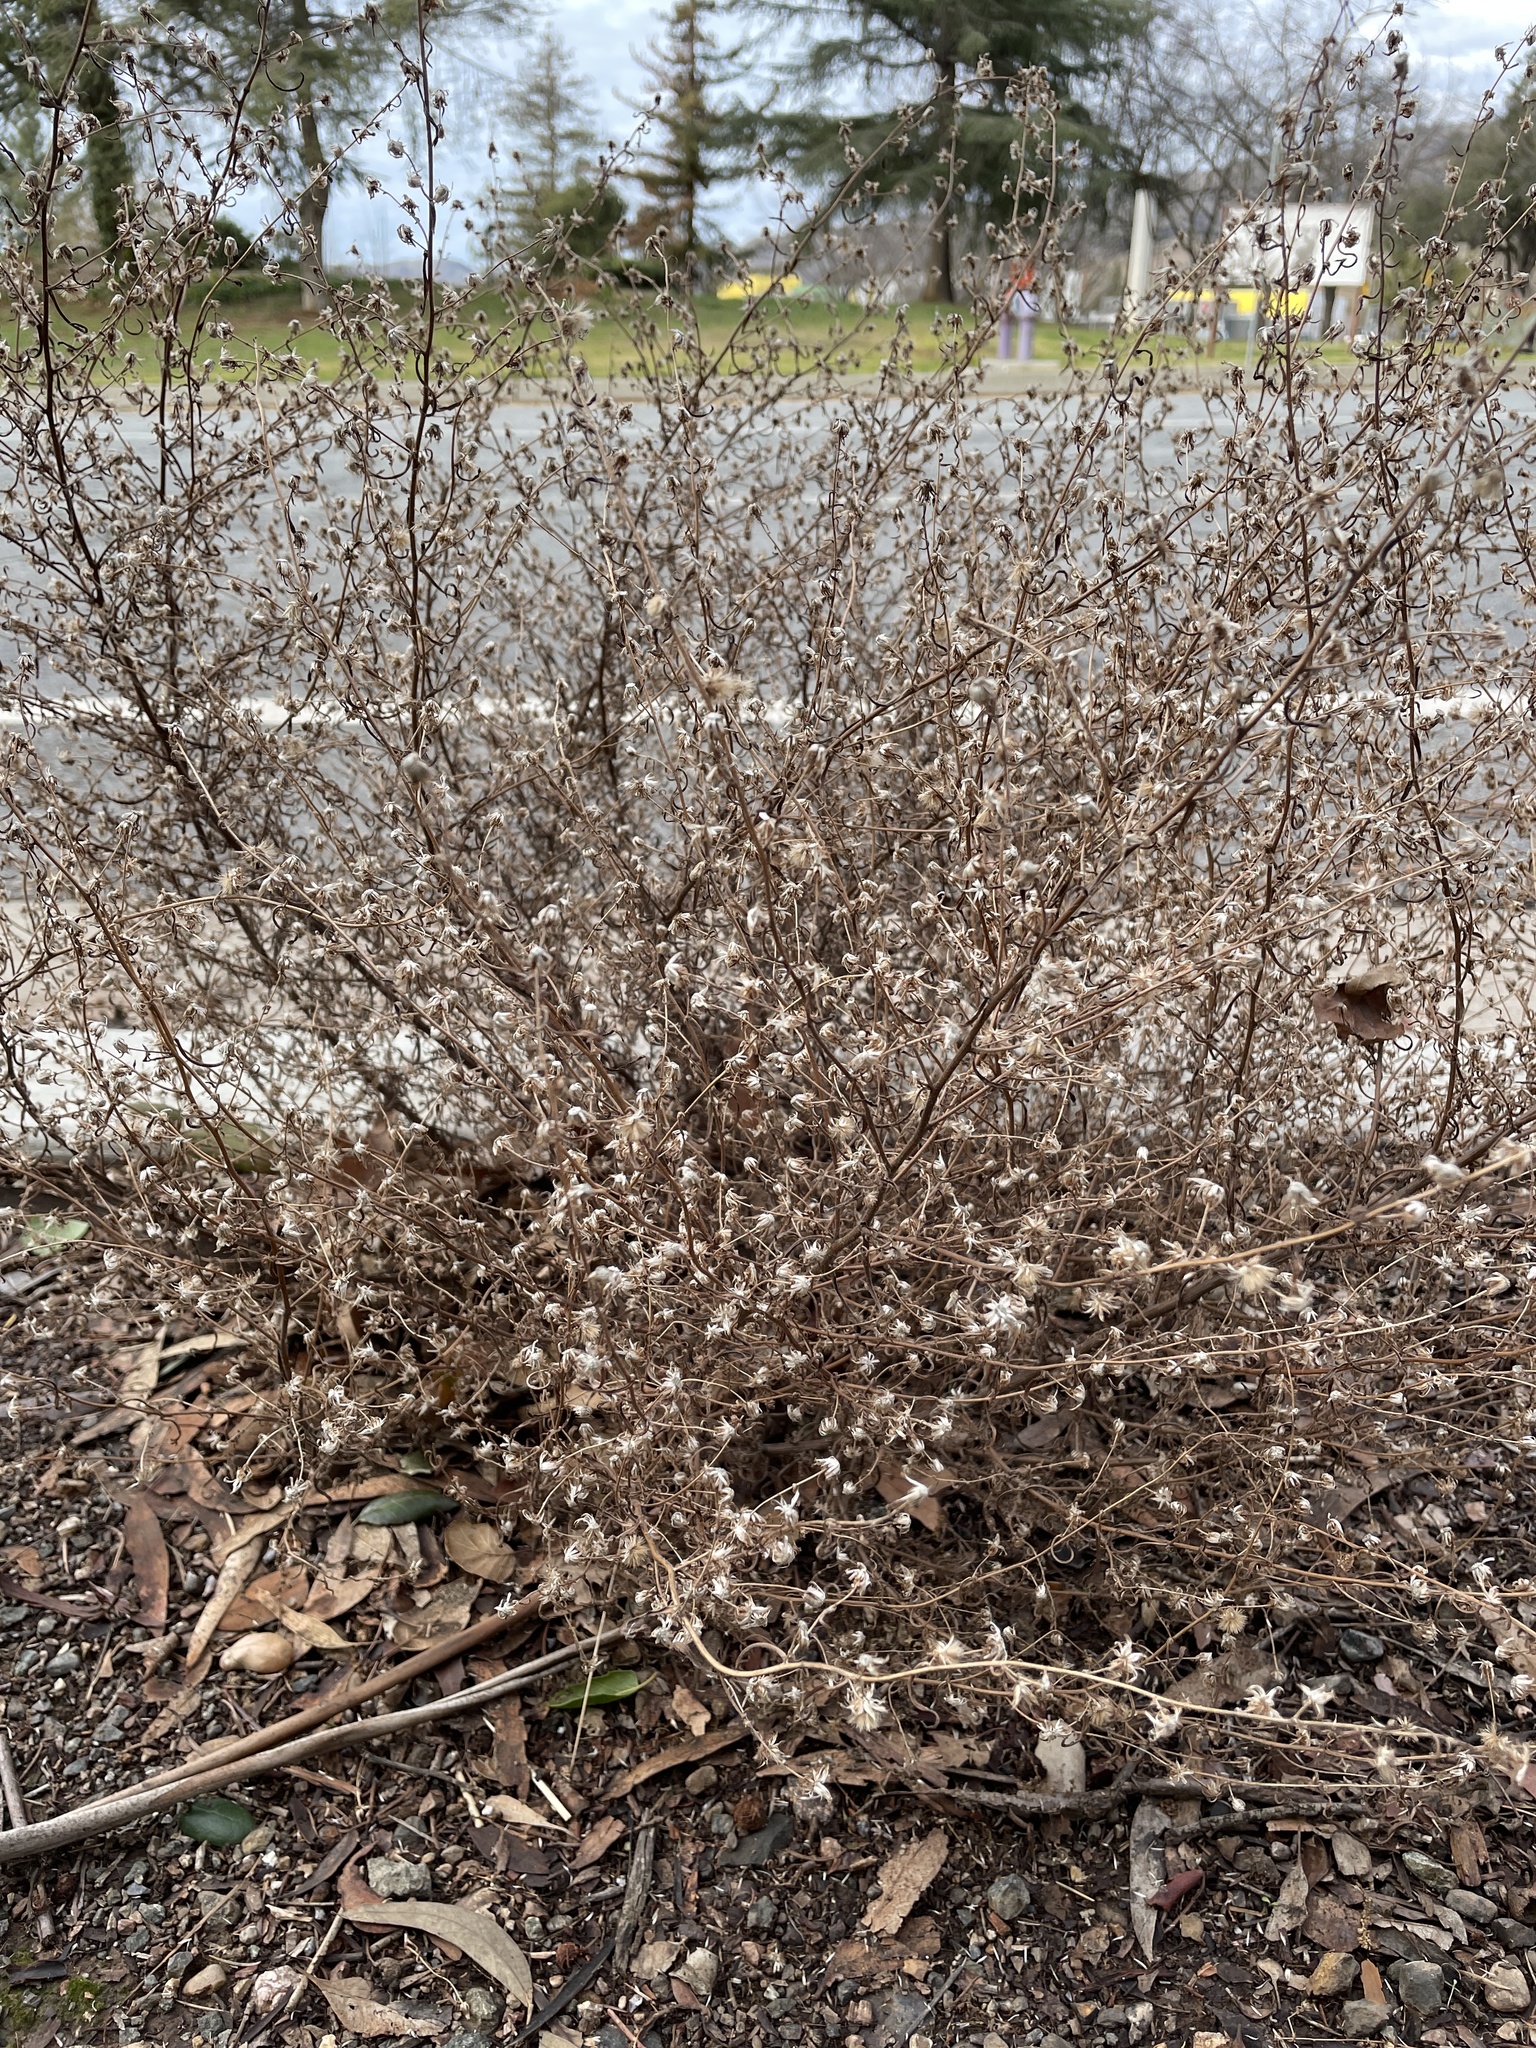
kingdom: Plantae
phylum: Tracheophyta
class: Magnoliopsida
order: Asterales
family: Asteraceae
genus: Dittrichia
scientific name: Dittrichia graveolens
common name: Stinking fleabane
